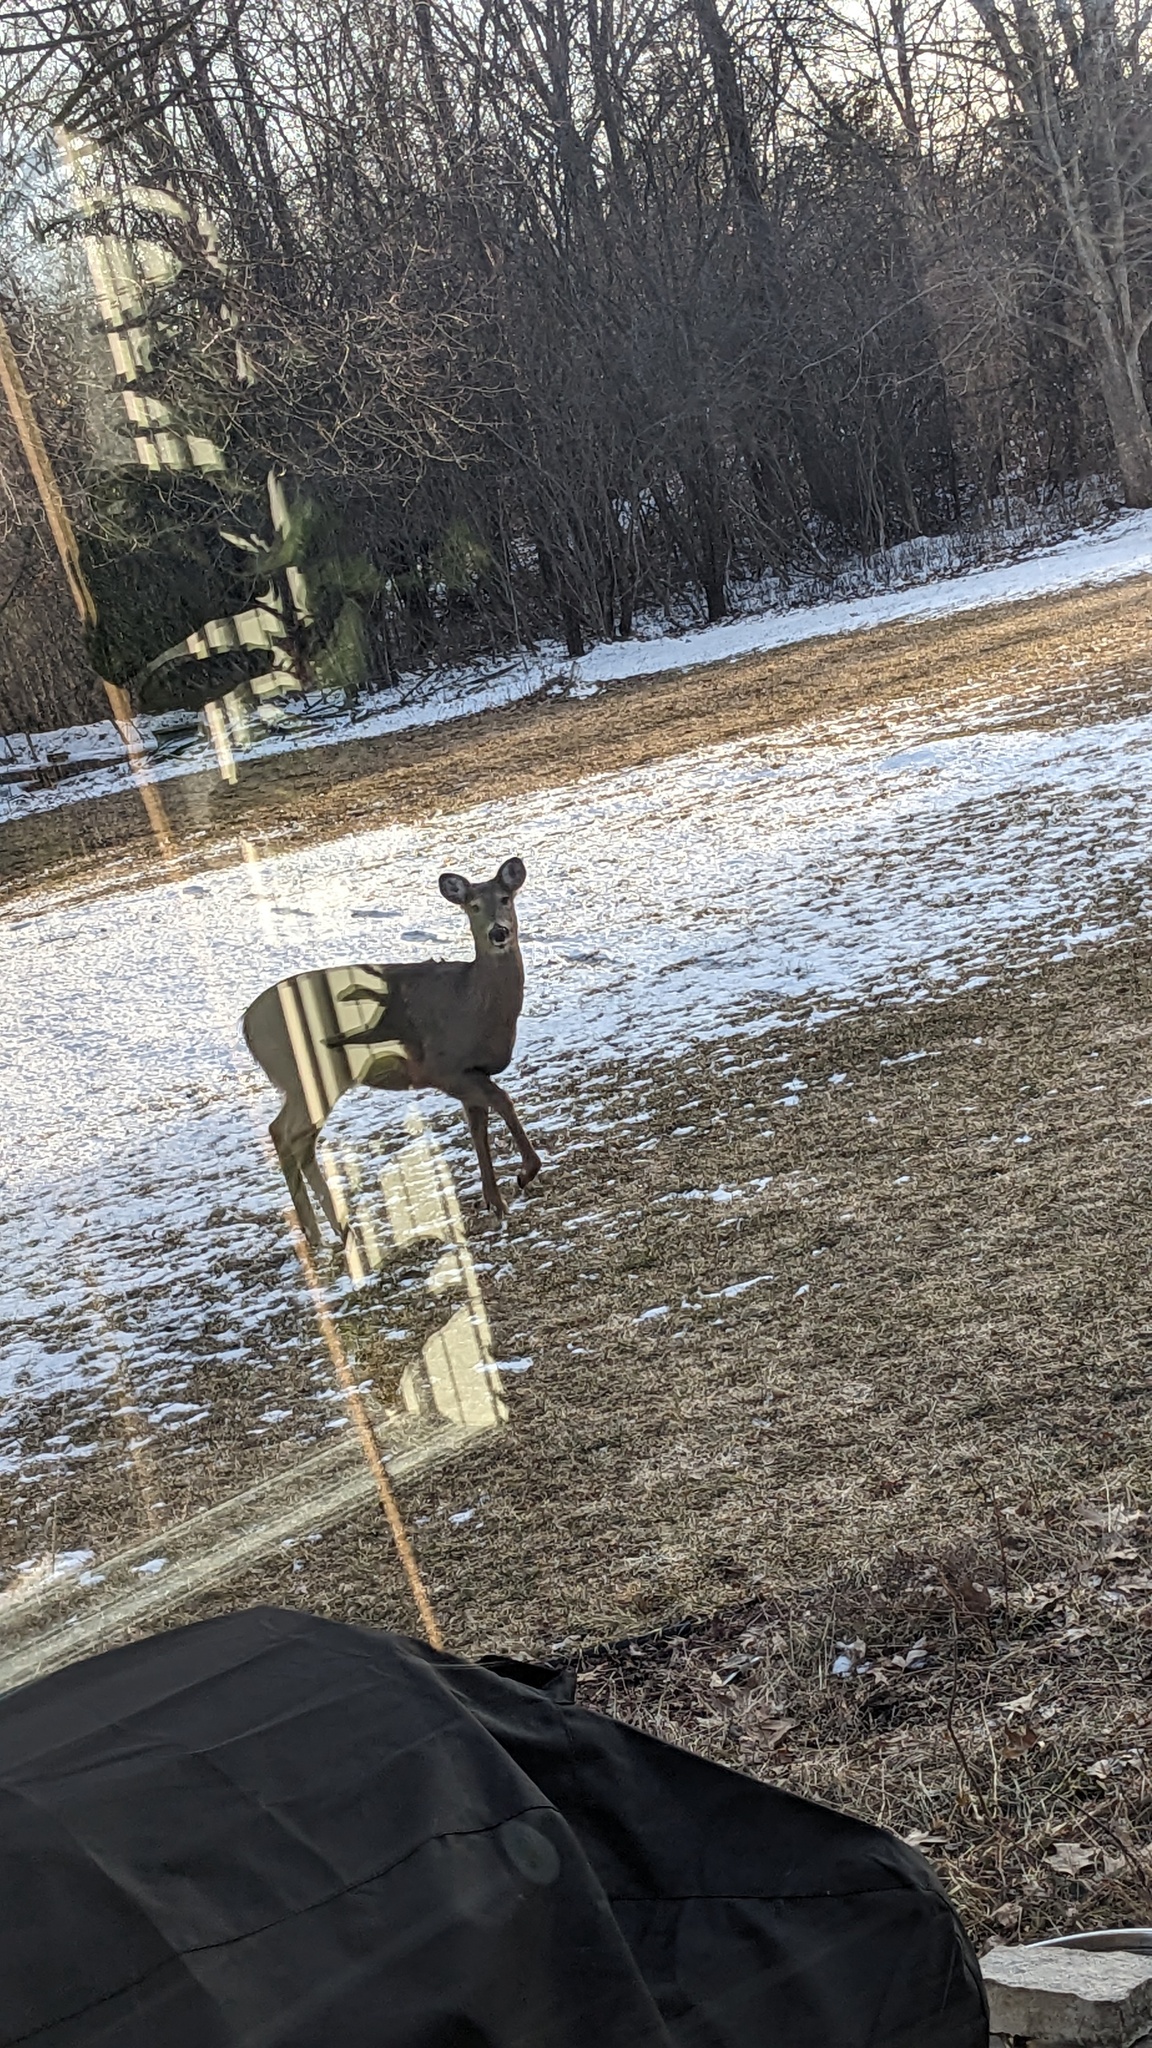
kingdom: Animalia
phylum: Chordata
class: Mammalia
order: Artiodactyla
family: Cervidae
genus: Odocoileus
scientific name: Odocoileus virginianus
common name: White-tailed deer
